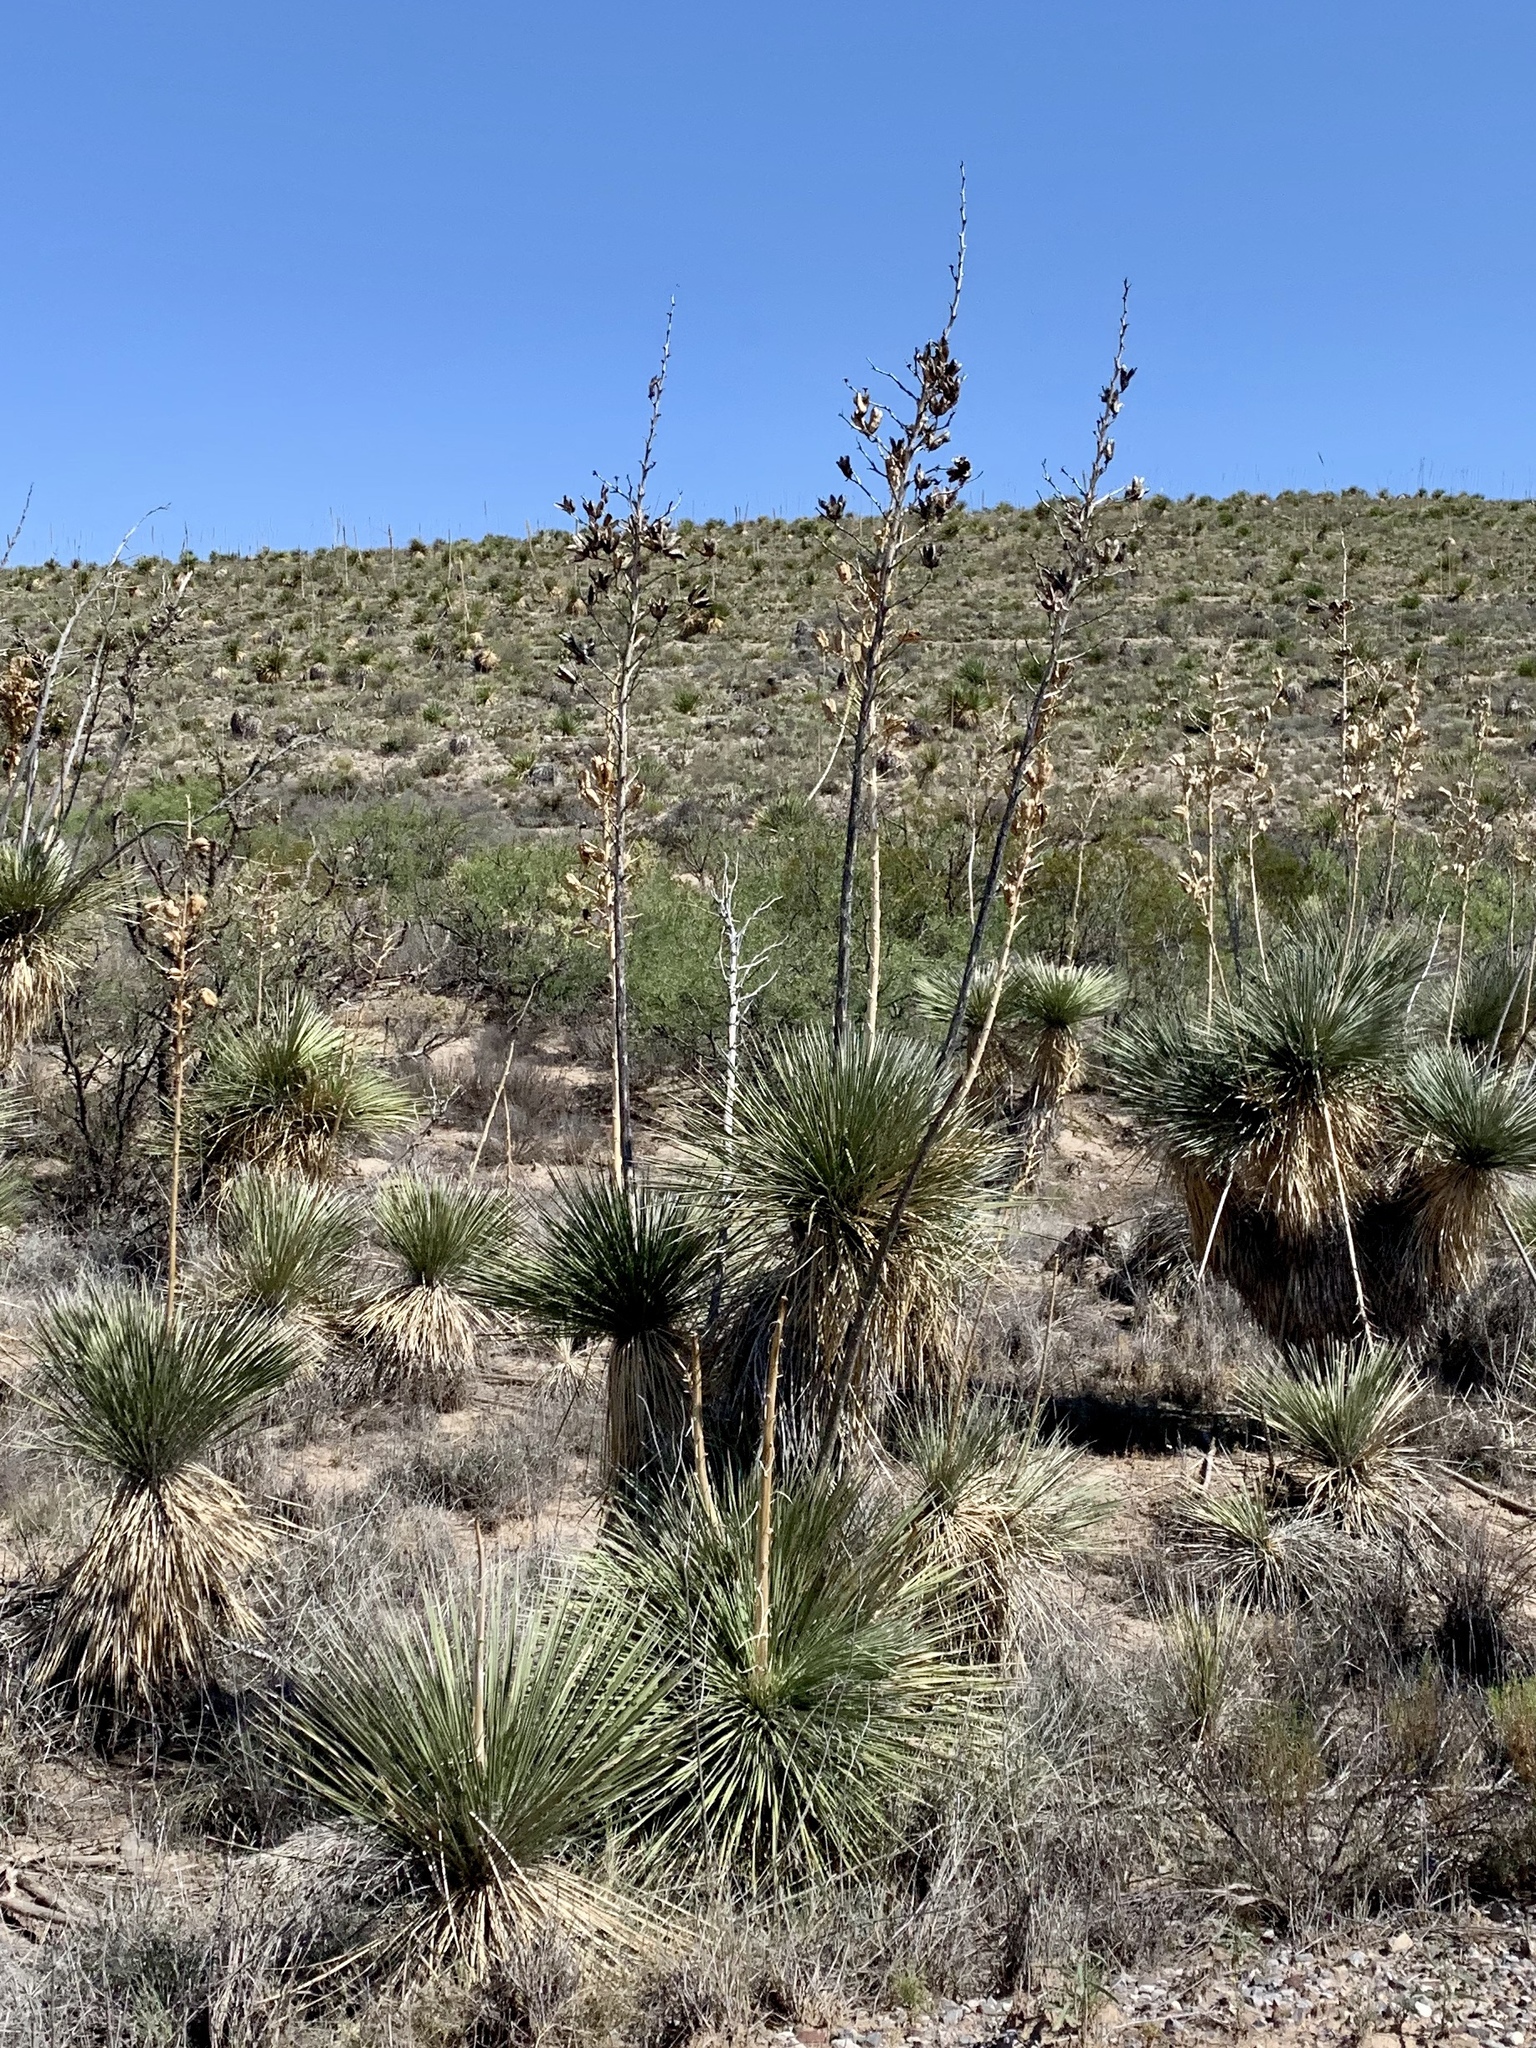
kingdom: Plantae
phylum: Tracheophyta
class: Liliopsida
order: Asparagales
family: Asparagaceae
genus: Yucca
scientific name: Yucca elata
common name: Palmella
